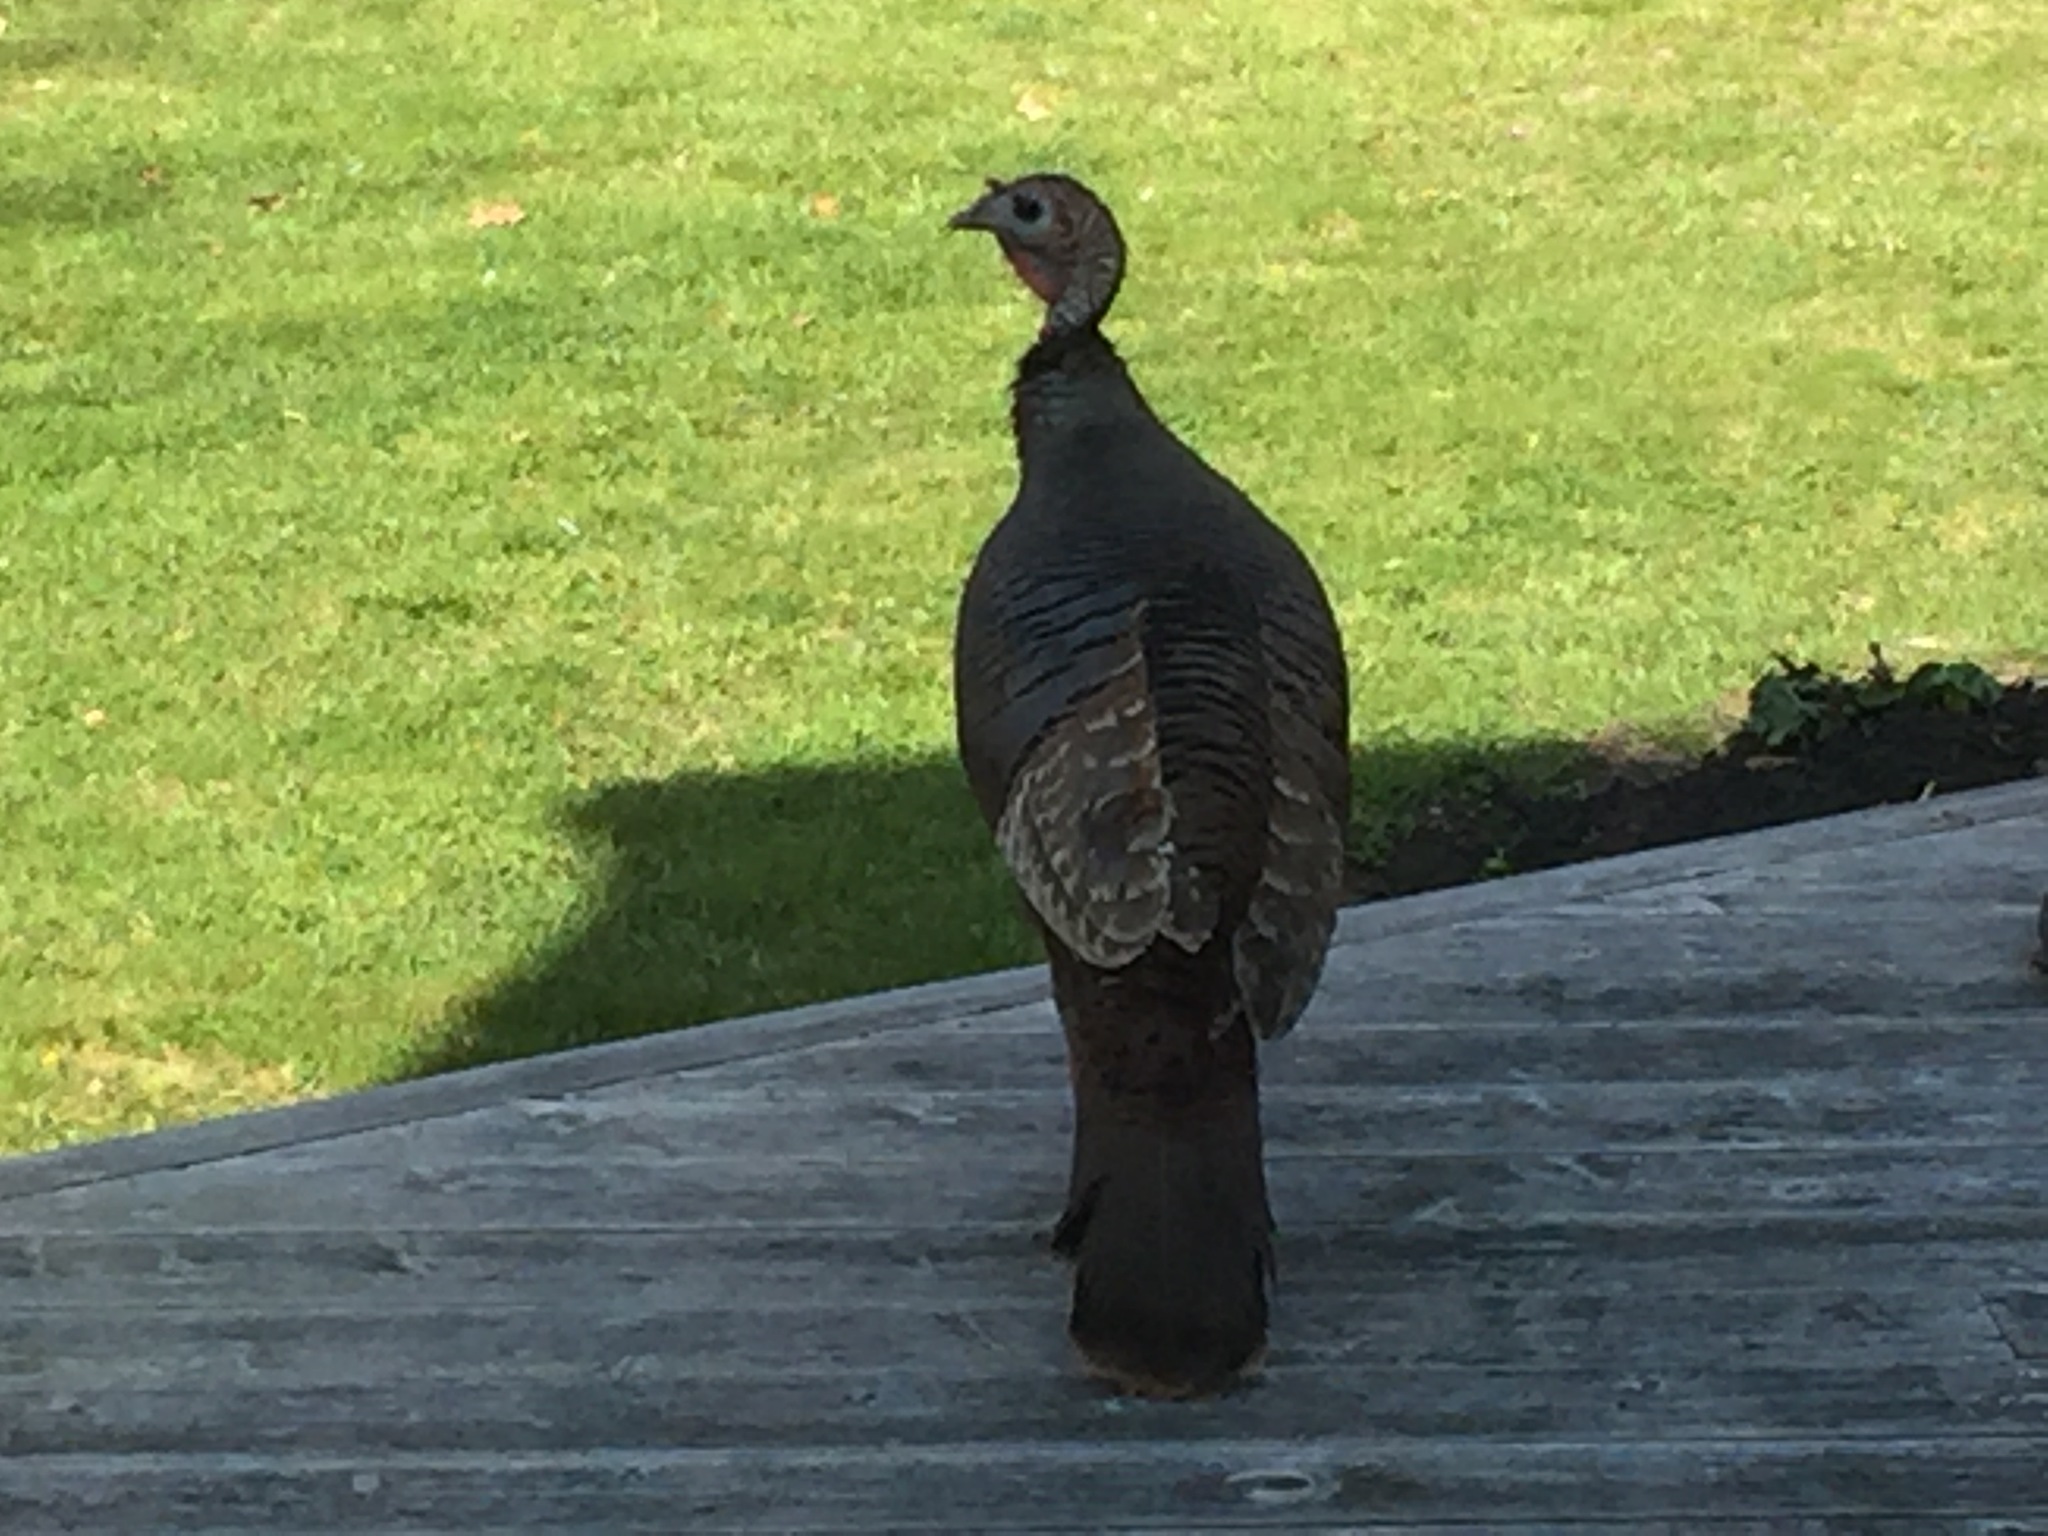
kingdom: Animalia
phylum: Chordata
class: Aves
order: Galliformes
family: Phasianidae
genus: Meleagris
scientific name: Meleagris gallopavo
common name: Wild turkey
